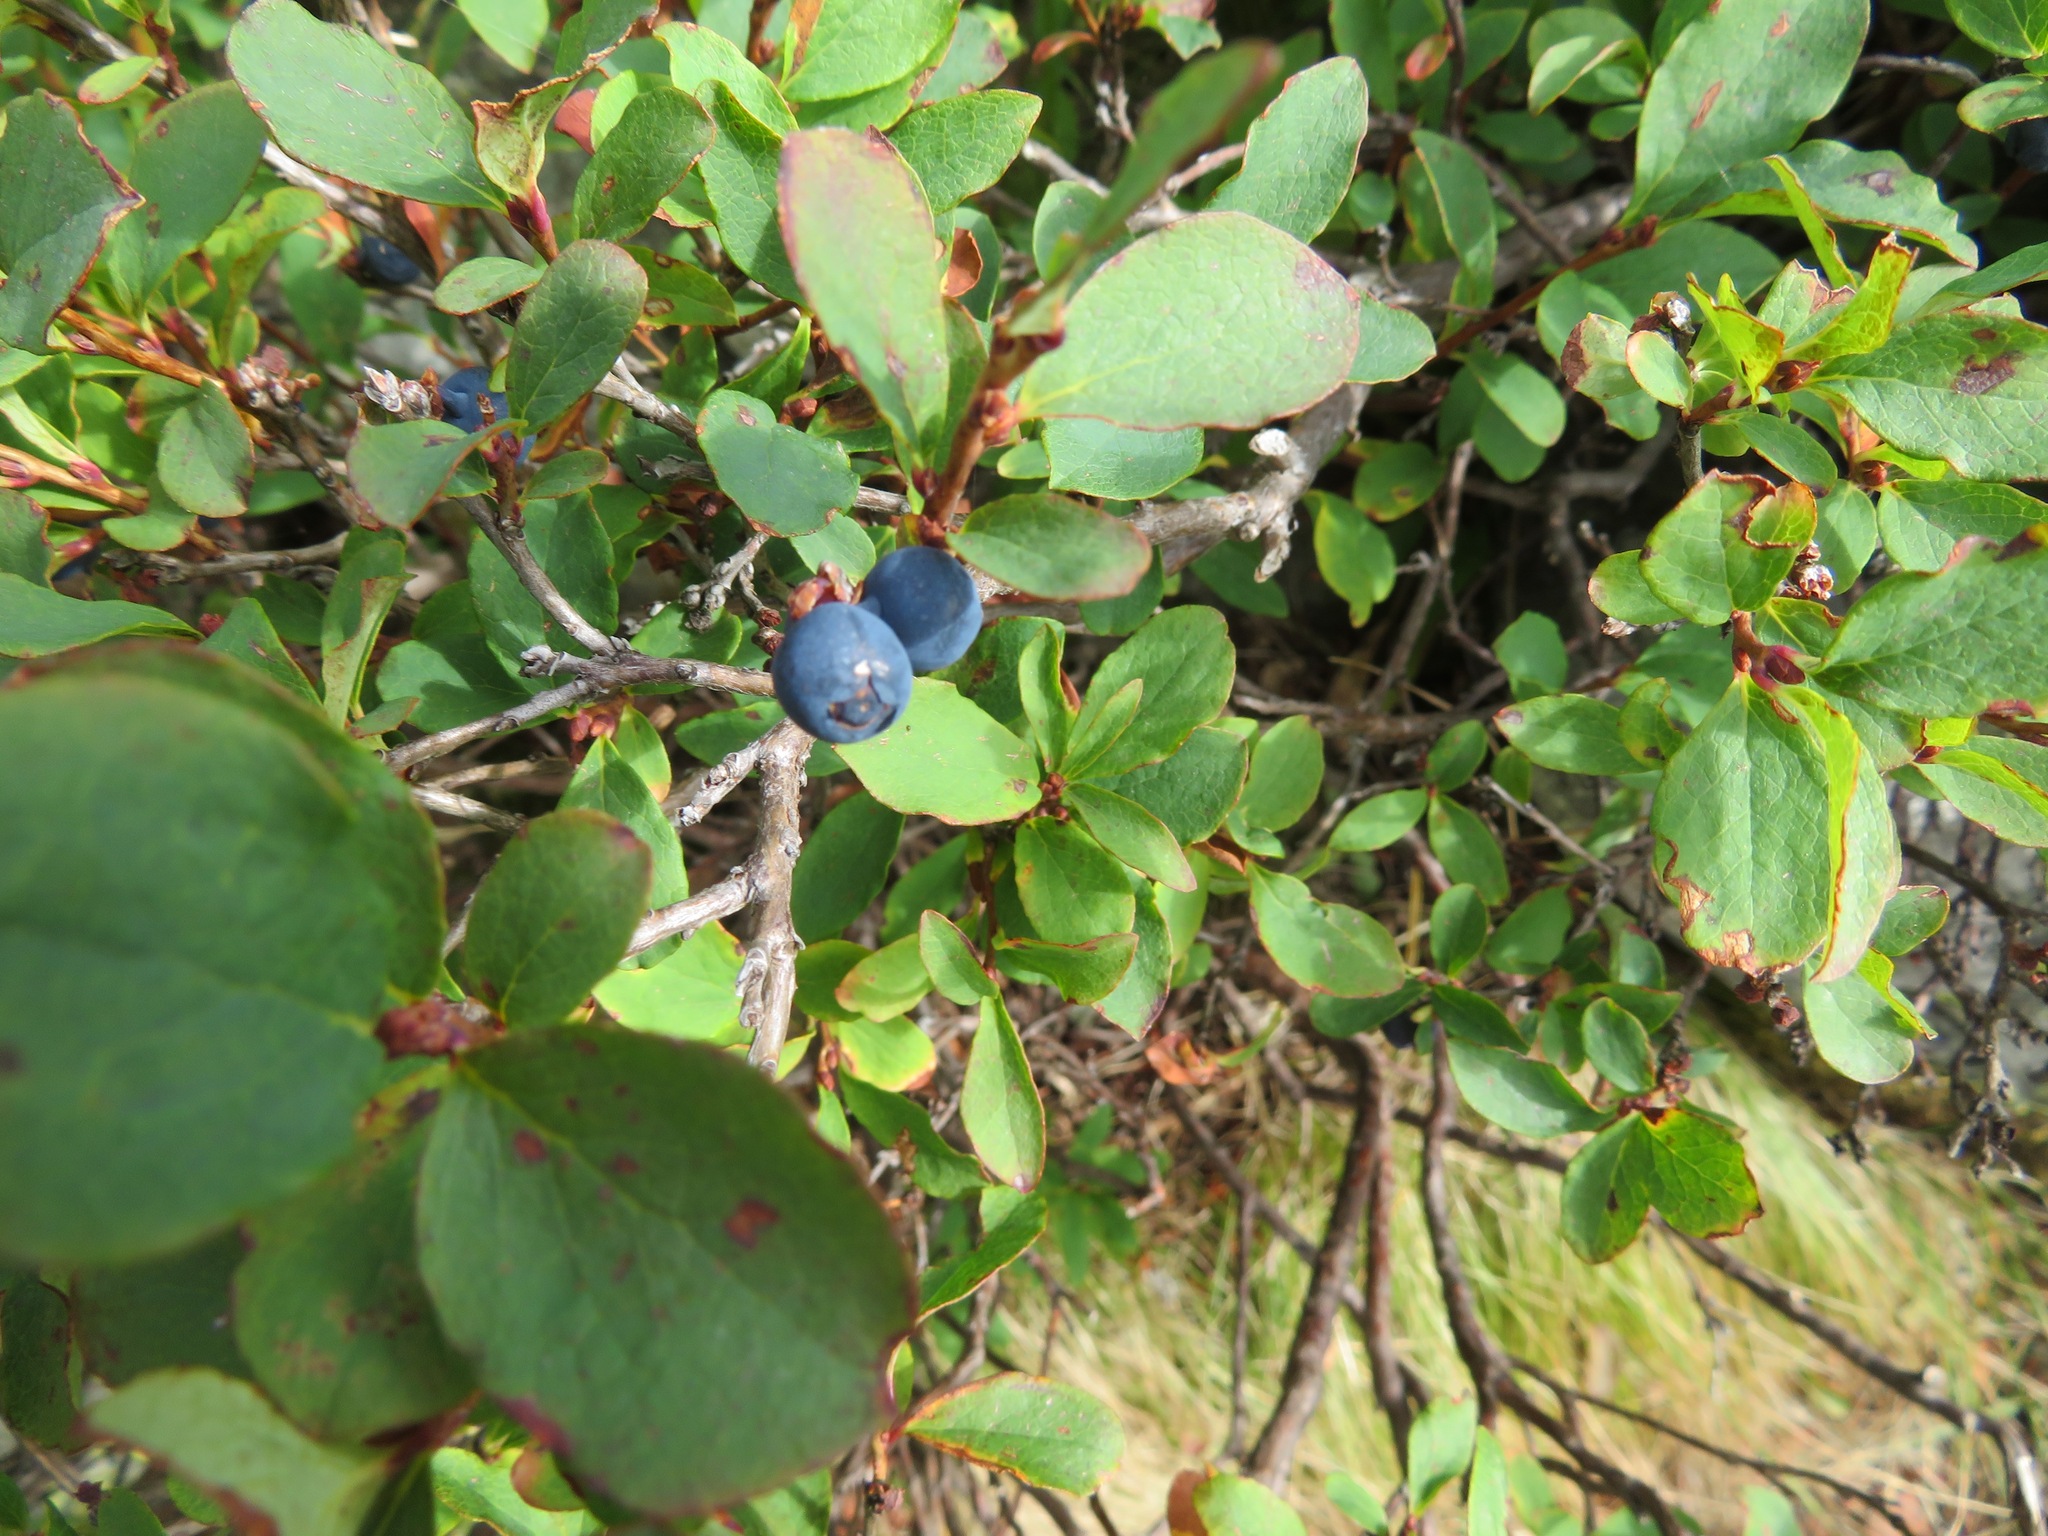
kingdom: Plantae
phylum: Tracheophyta
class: Magnoliopsida
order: Ericales
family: Ericaceae
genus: Vaccinium
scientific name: Vaccinium uliginosum
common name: Bog bilberry
